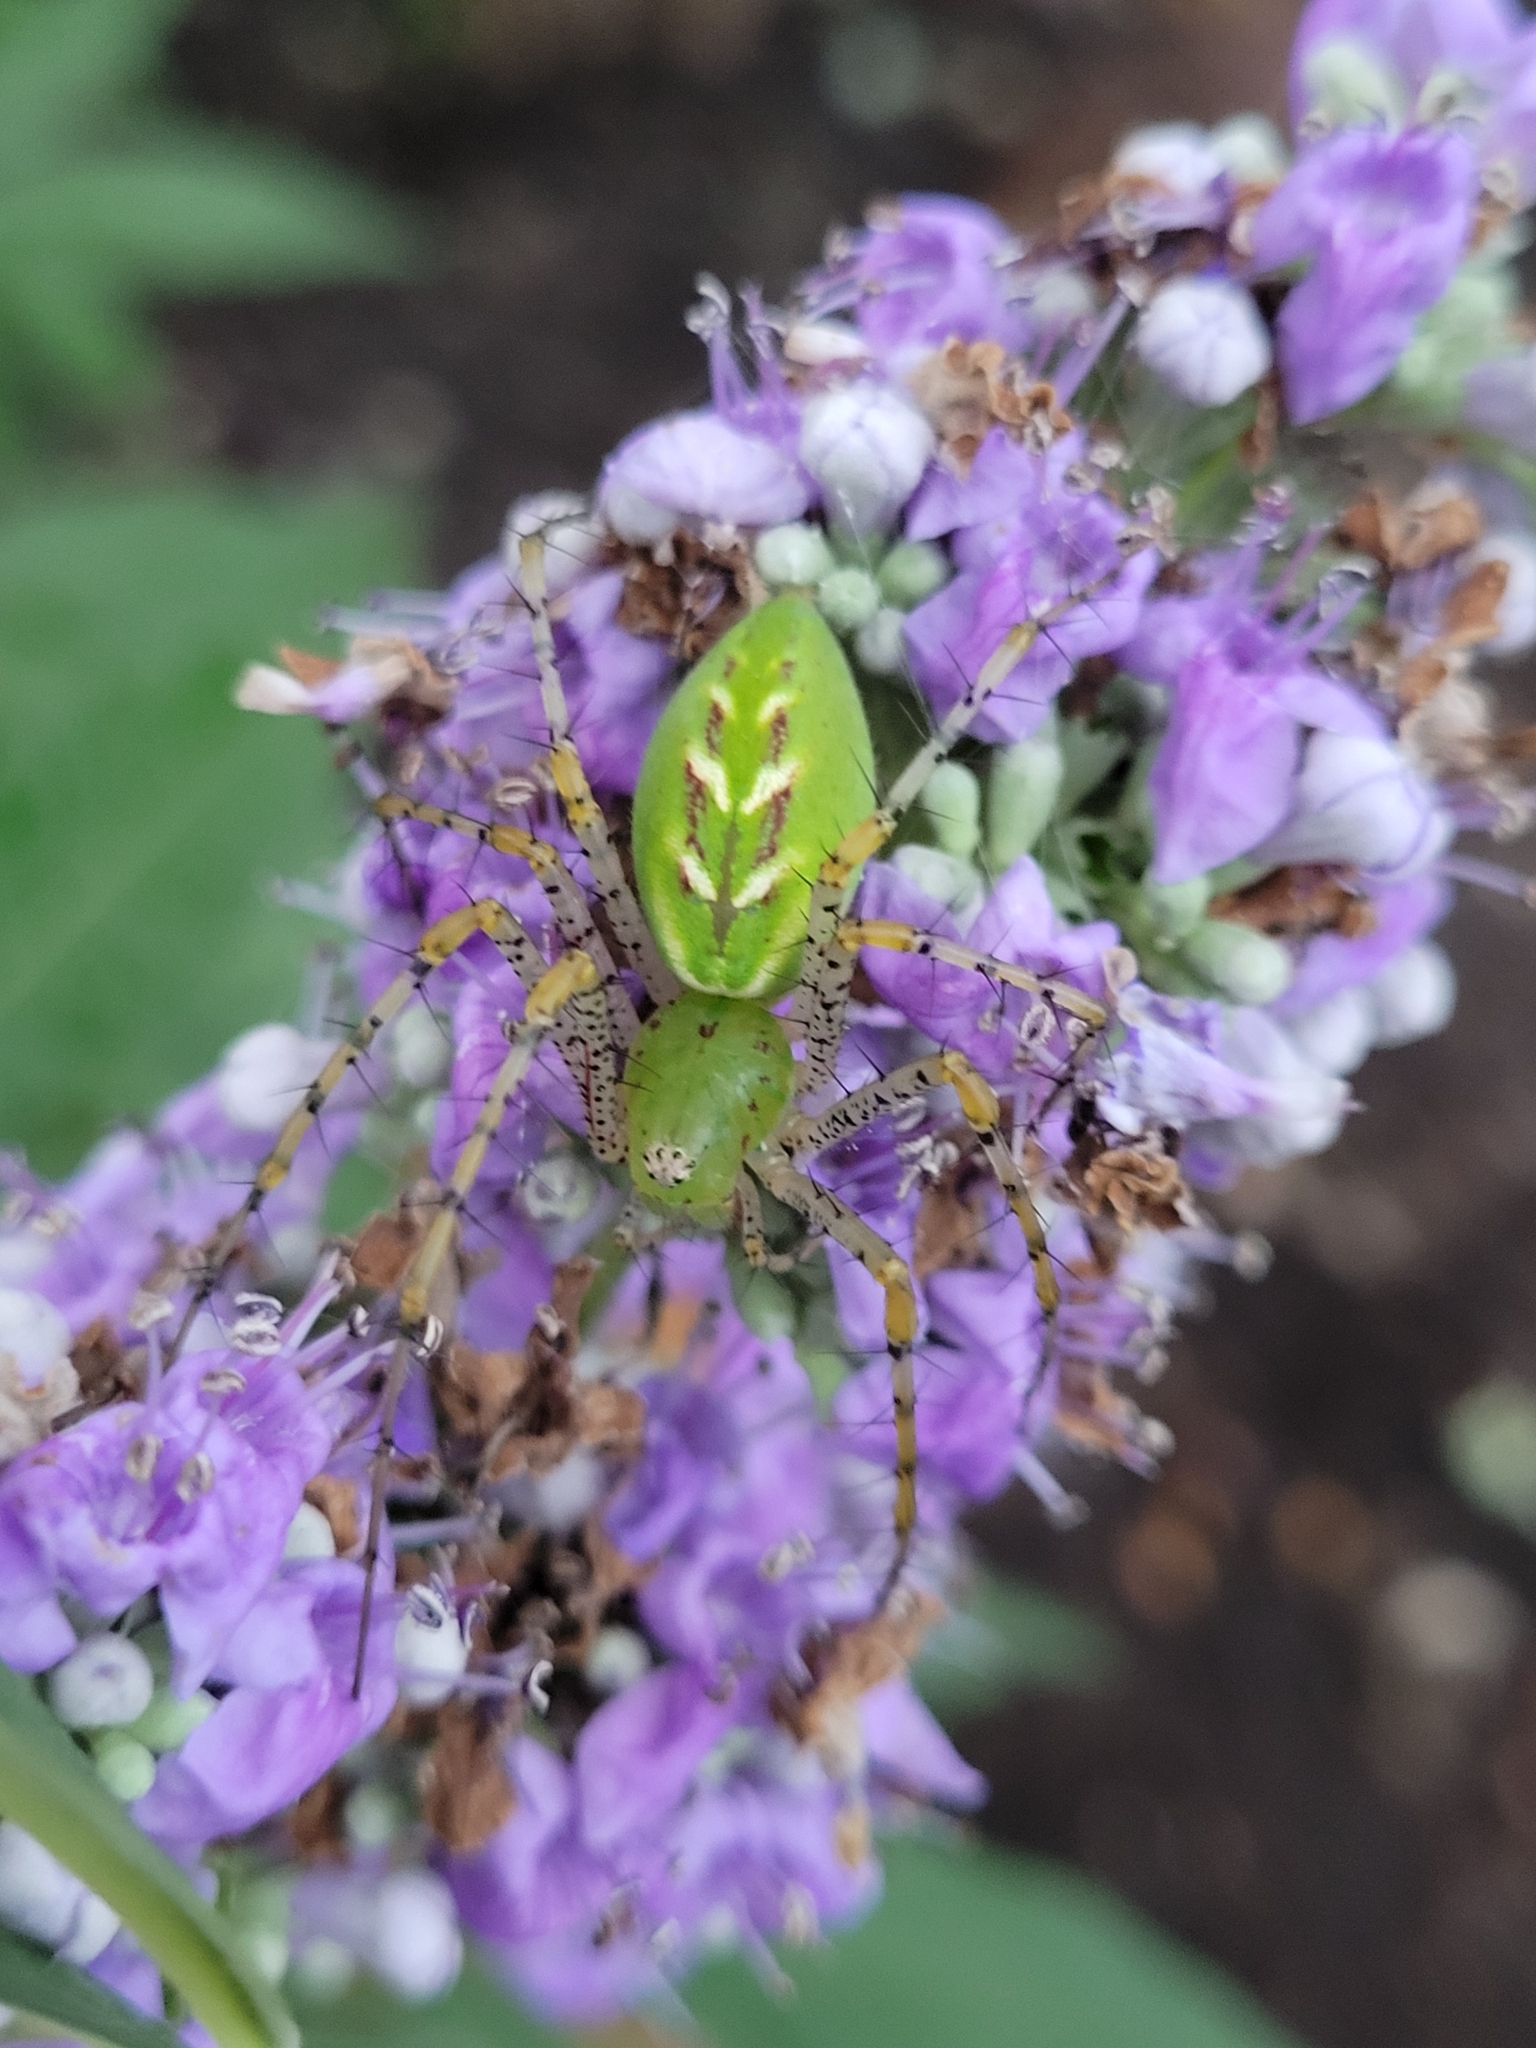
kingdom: Animalia
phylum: Arthropoda
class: Arachnida
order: Araneae
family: Oxyopidae
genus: Peucetia
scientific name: Peucetia viridans
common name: Lynx spiders
